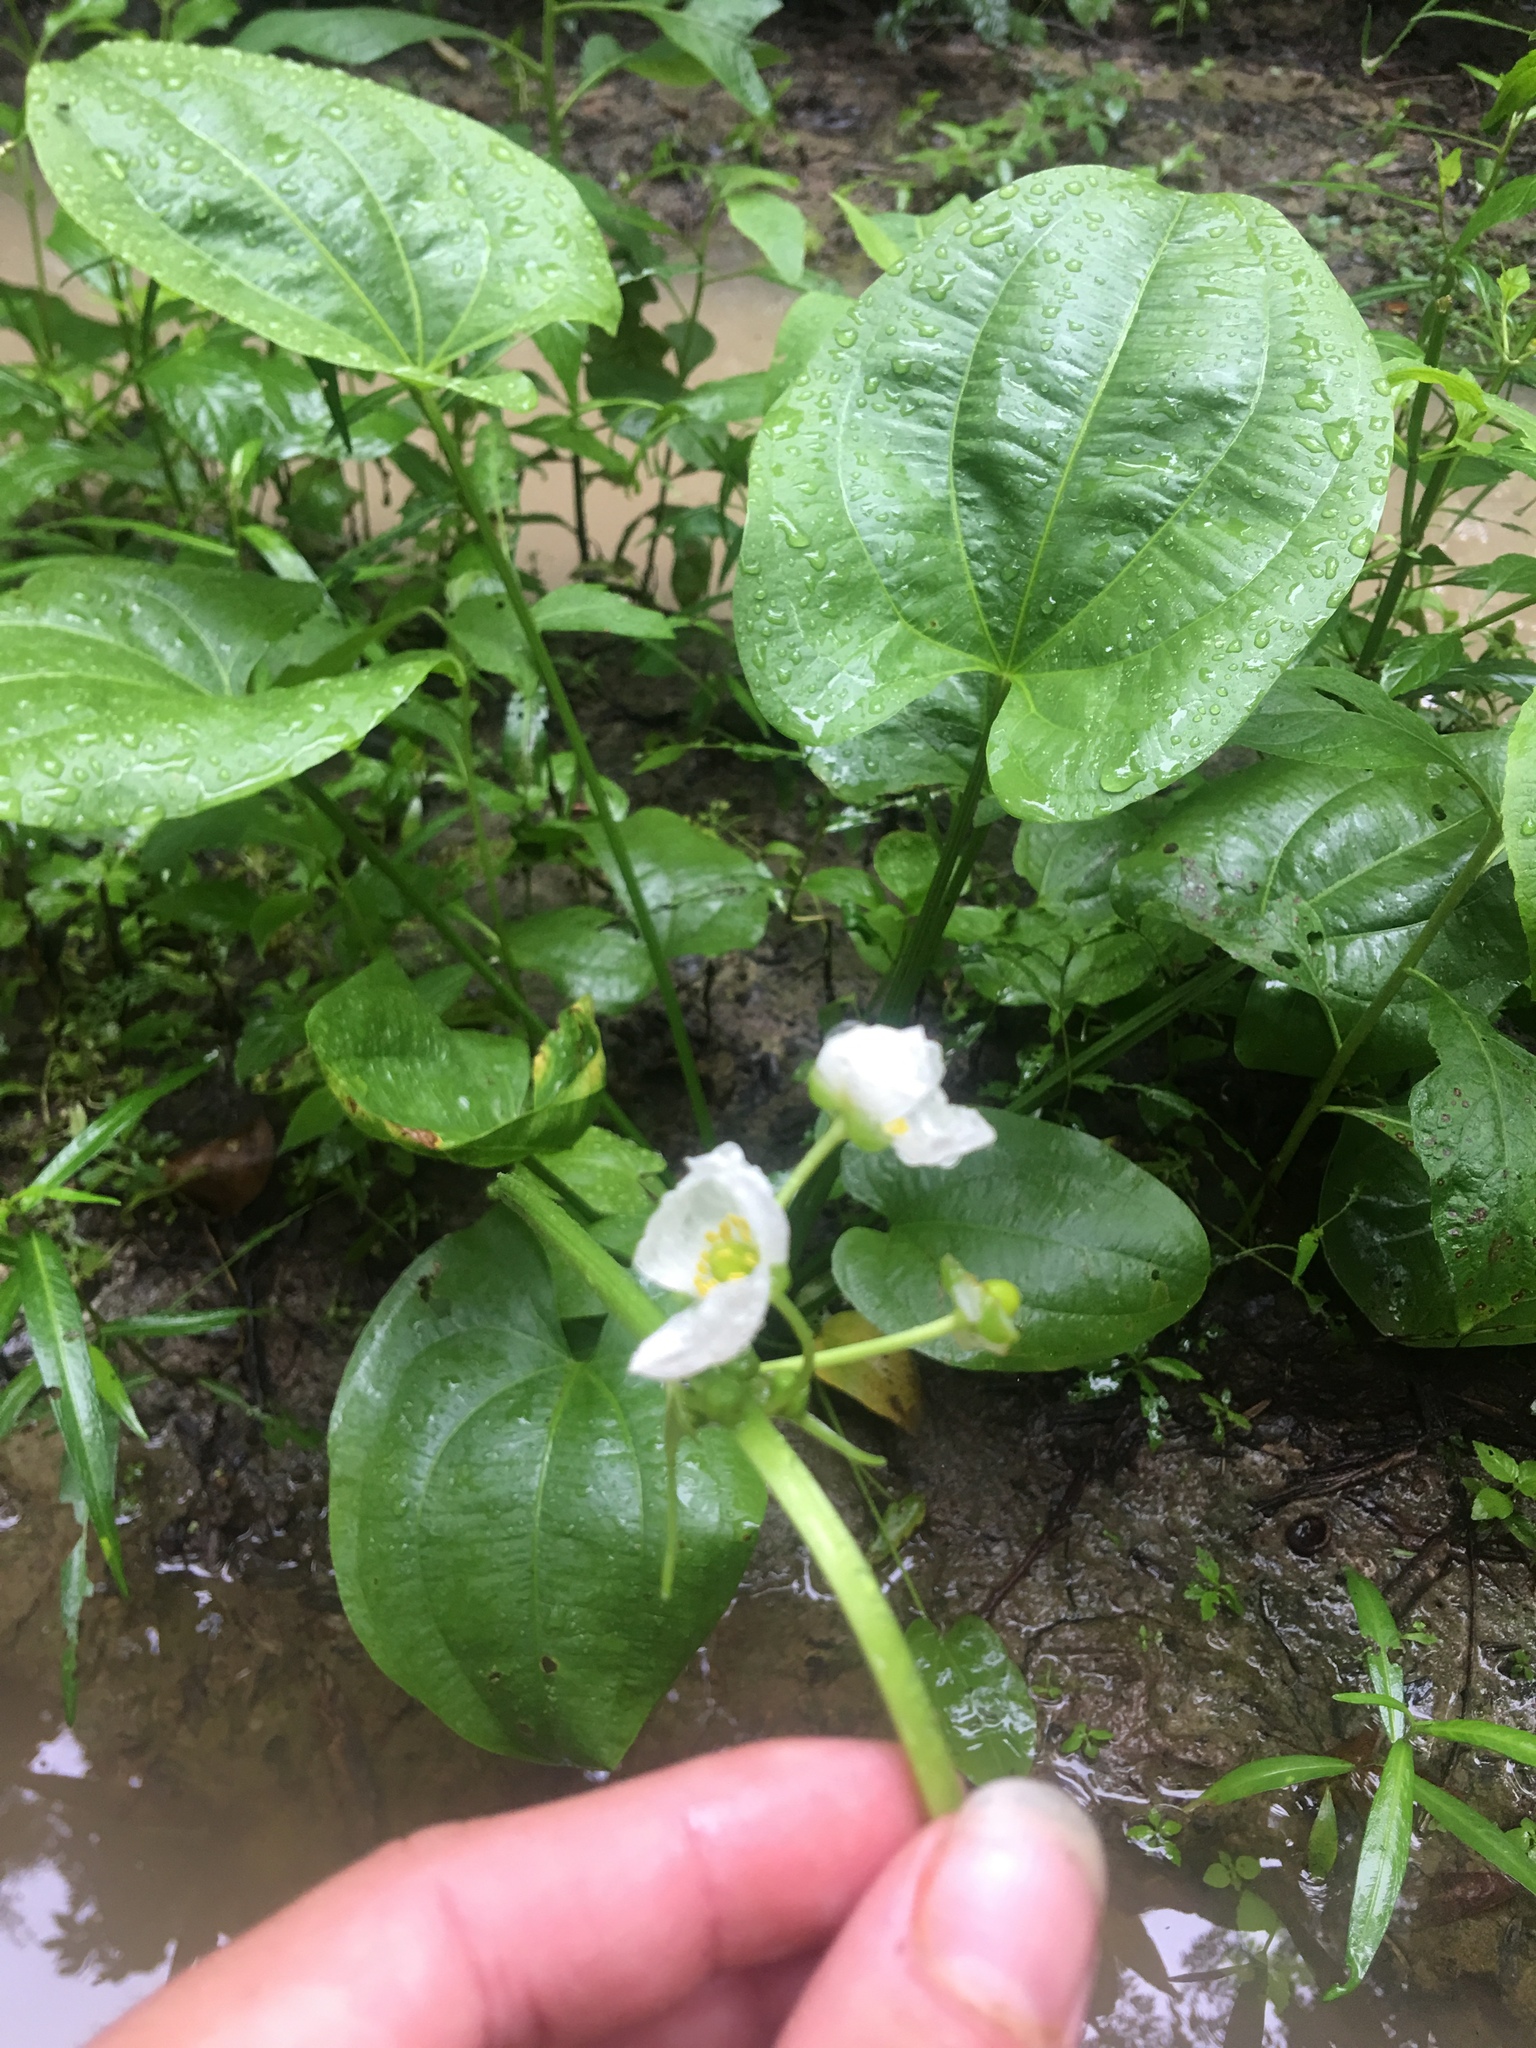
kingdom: Plantae
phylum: Tracheophyta
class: Liliopsida
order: Alismatales
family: Alismataceae
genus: Aquarius
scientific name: Aquarius cordifolius
